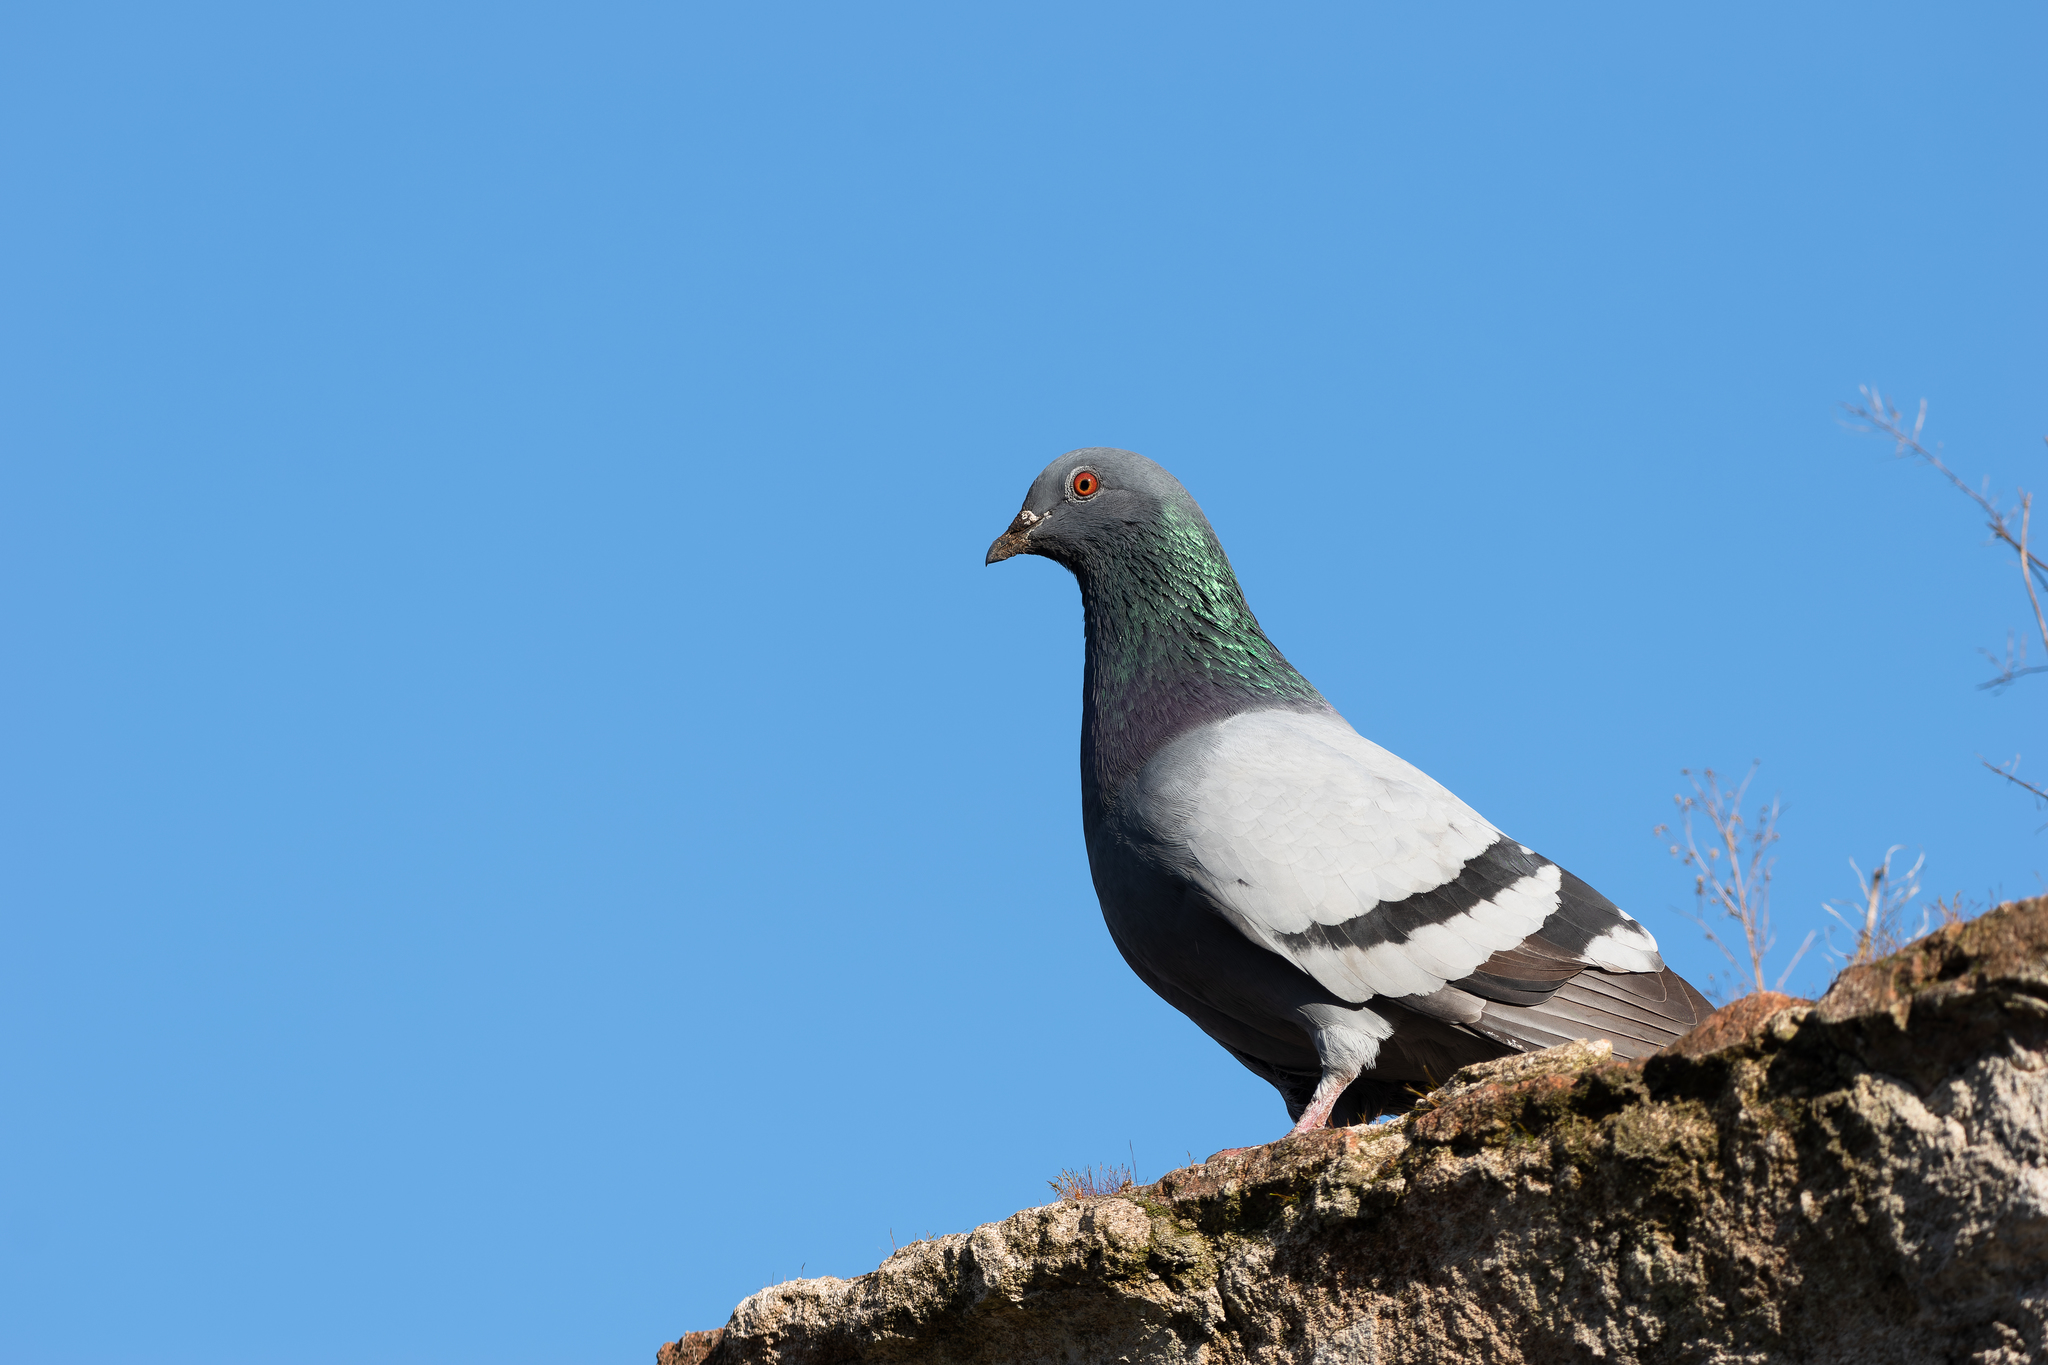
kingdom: Animalia
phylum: Chordata
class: Aves
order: Columbiformes
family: Columbidae
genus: Columba
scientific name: Columba livia
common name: Rock pigeon
